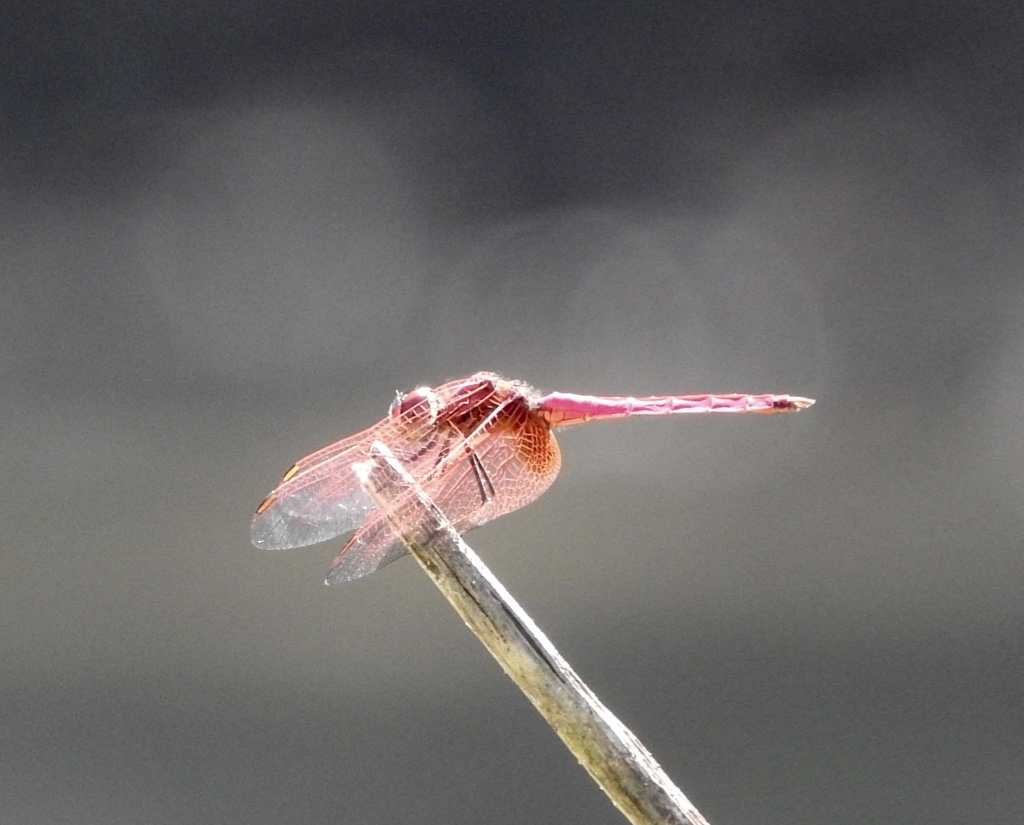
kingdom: Animalia
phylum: Arthropoda
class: Insecta
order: Odonata
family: Libellulidae
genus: Trithemis
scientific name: Trithemis aurora
